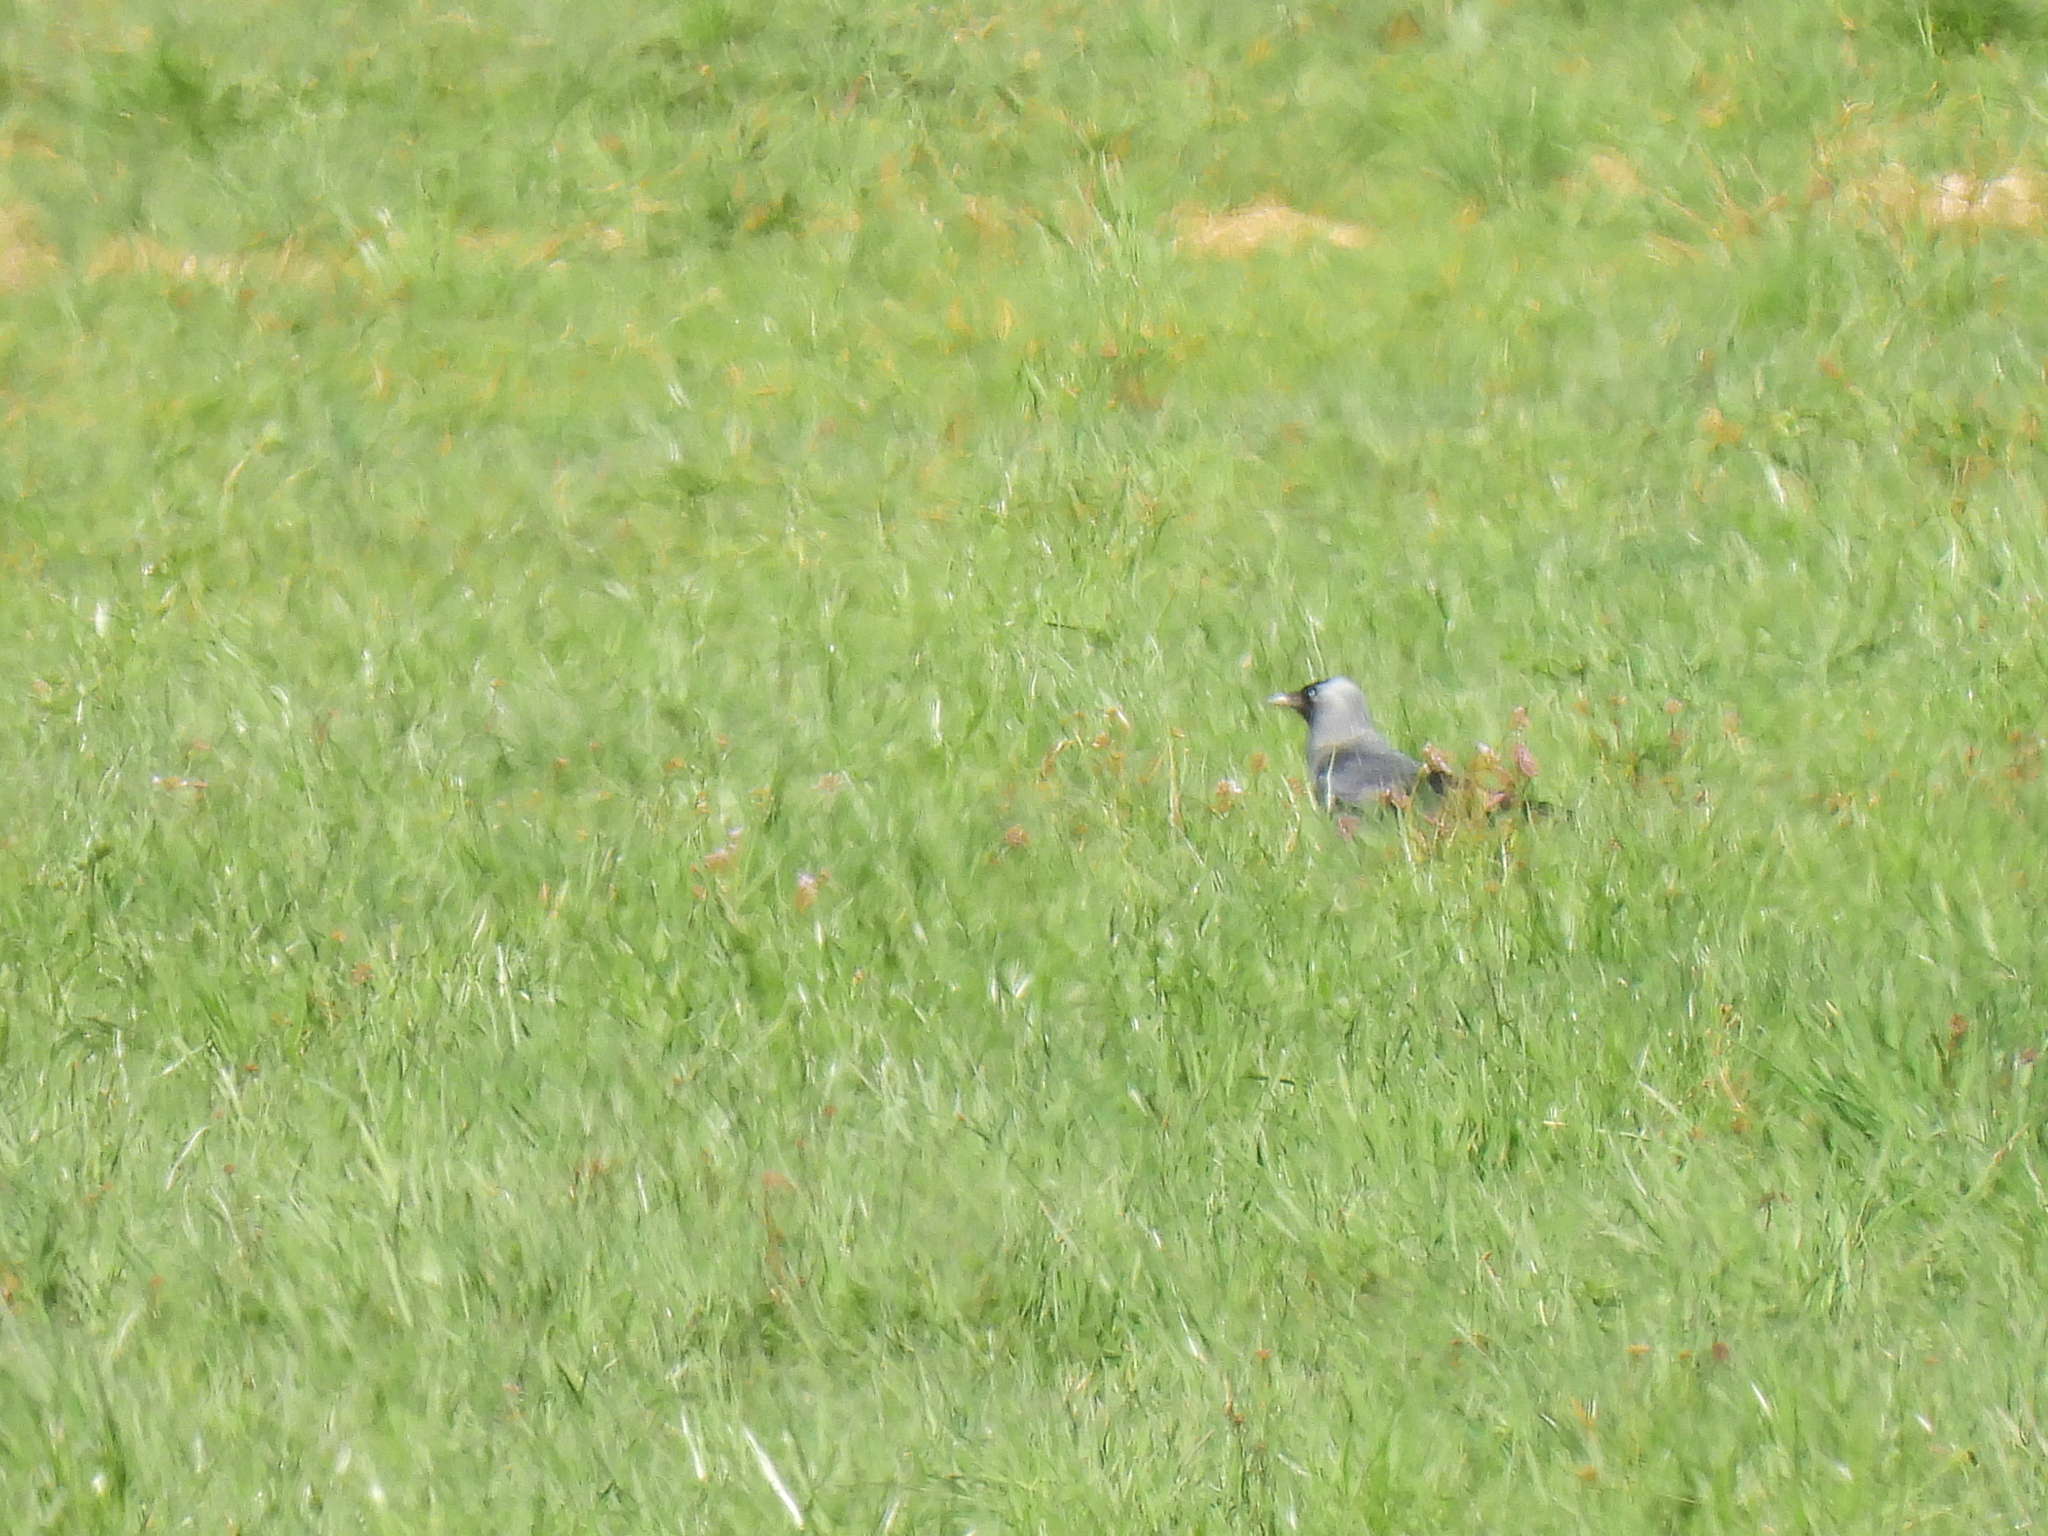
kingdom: Animalia
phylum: Chordata
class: Aves
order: Passeriformes
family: Corvidae
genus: Coloeus
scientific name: Coloeus monedula
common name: Western jackdaw
